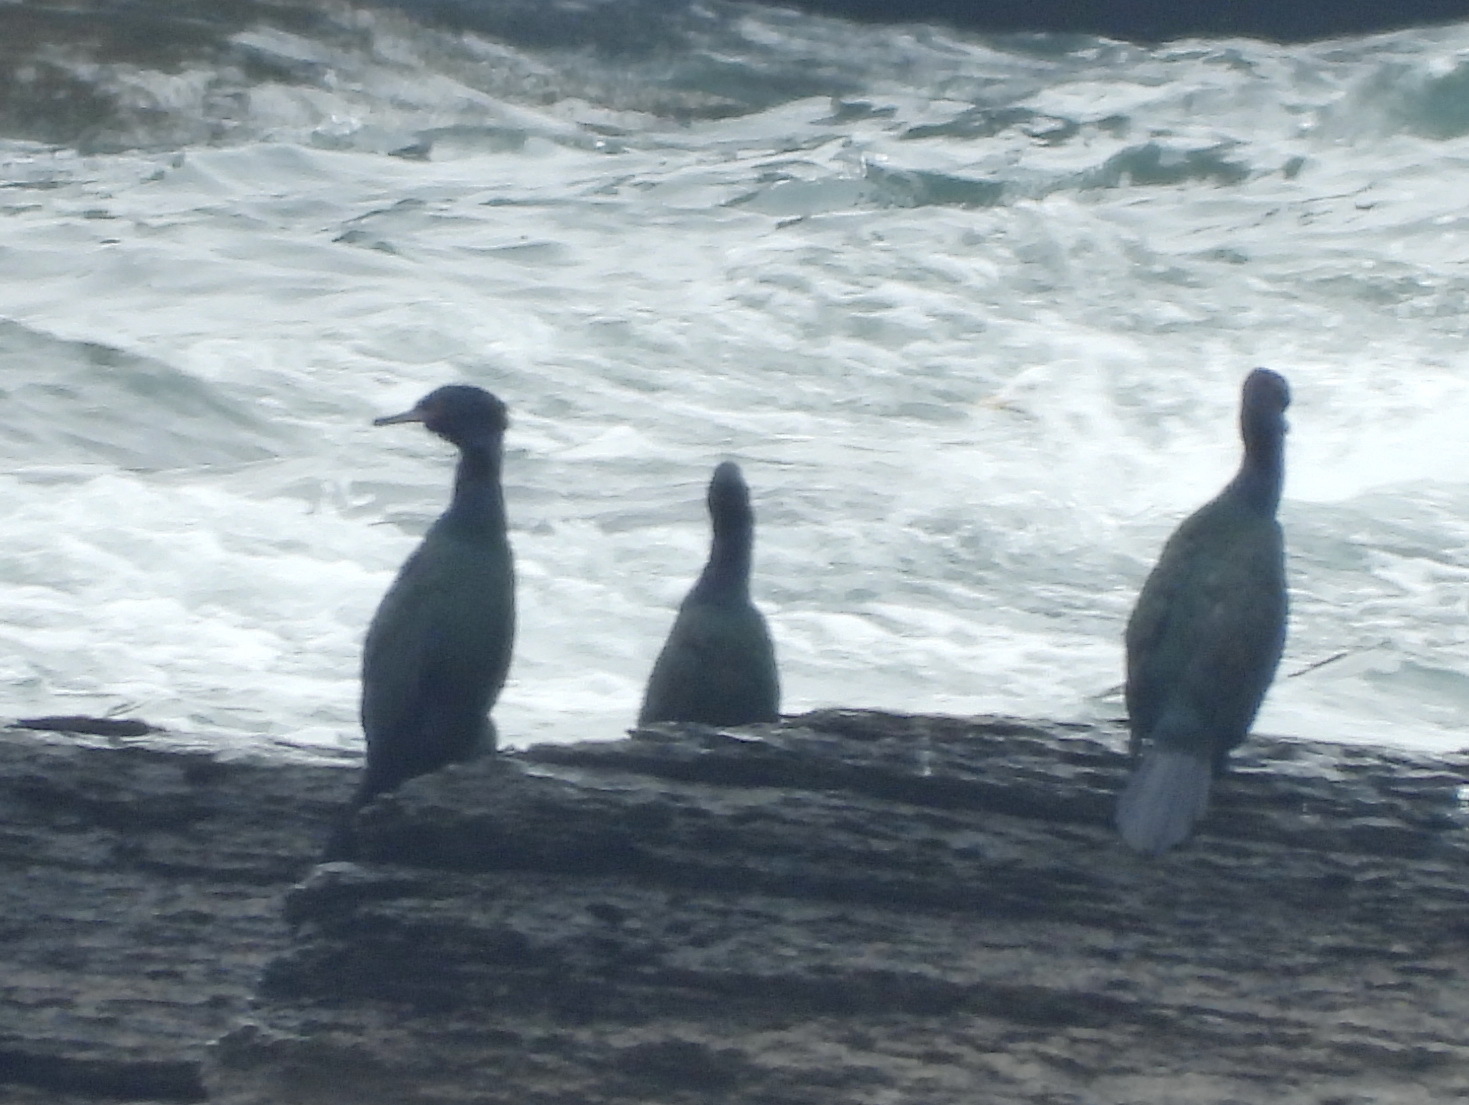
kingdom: Animalia
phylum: Chordata
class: Aves
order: Suliformes
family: Phalacrocoracidae
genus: Phalacrocorax
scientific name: Phalacrocorax pelagicus
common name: Pelagic cormorant
